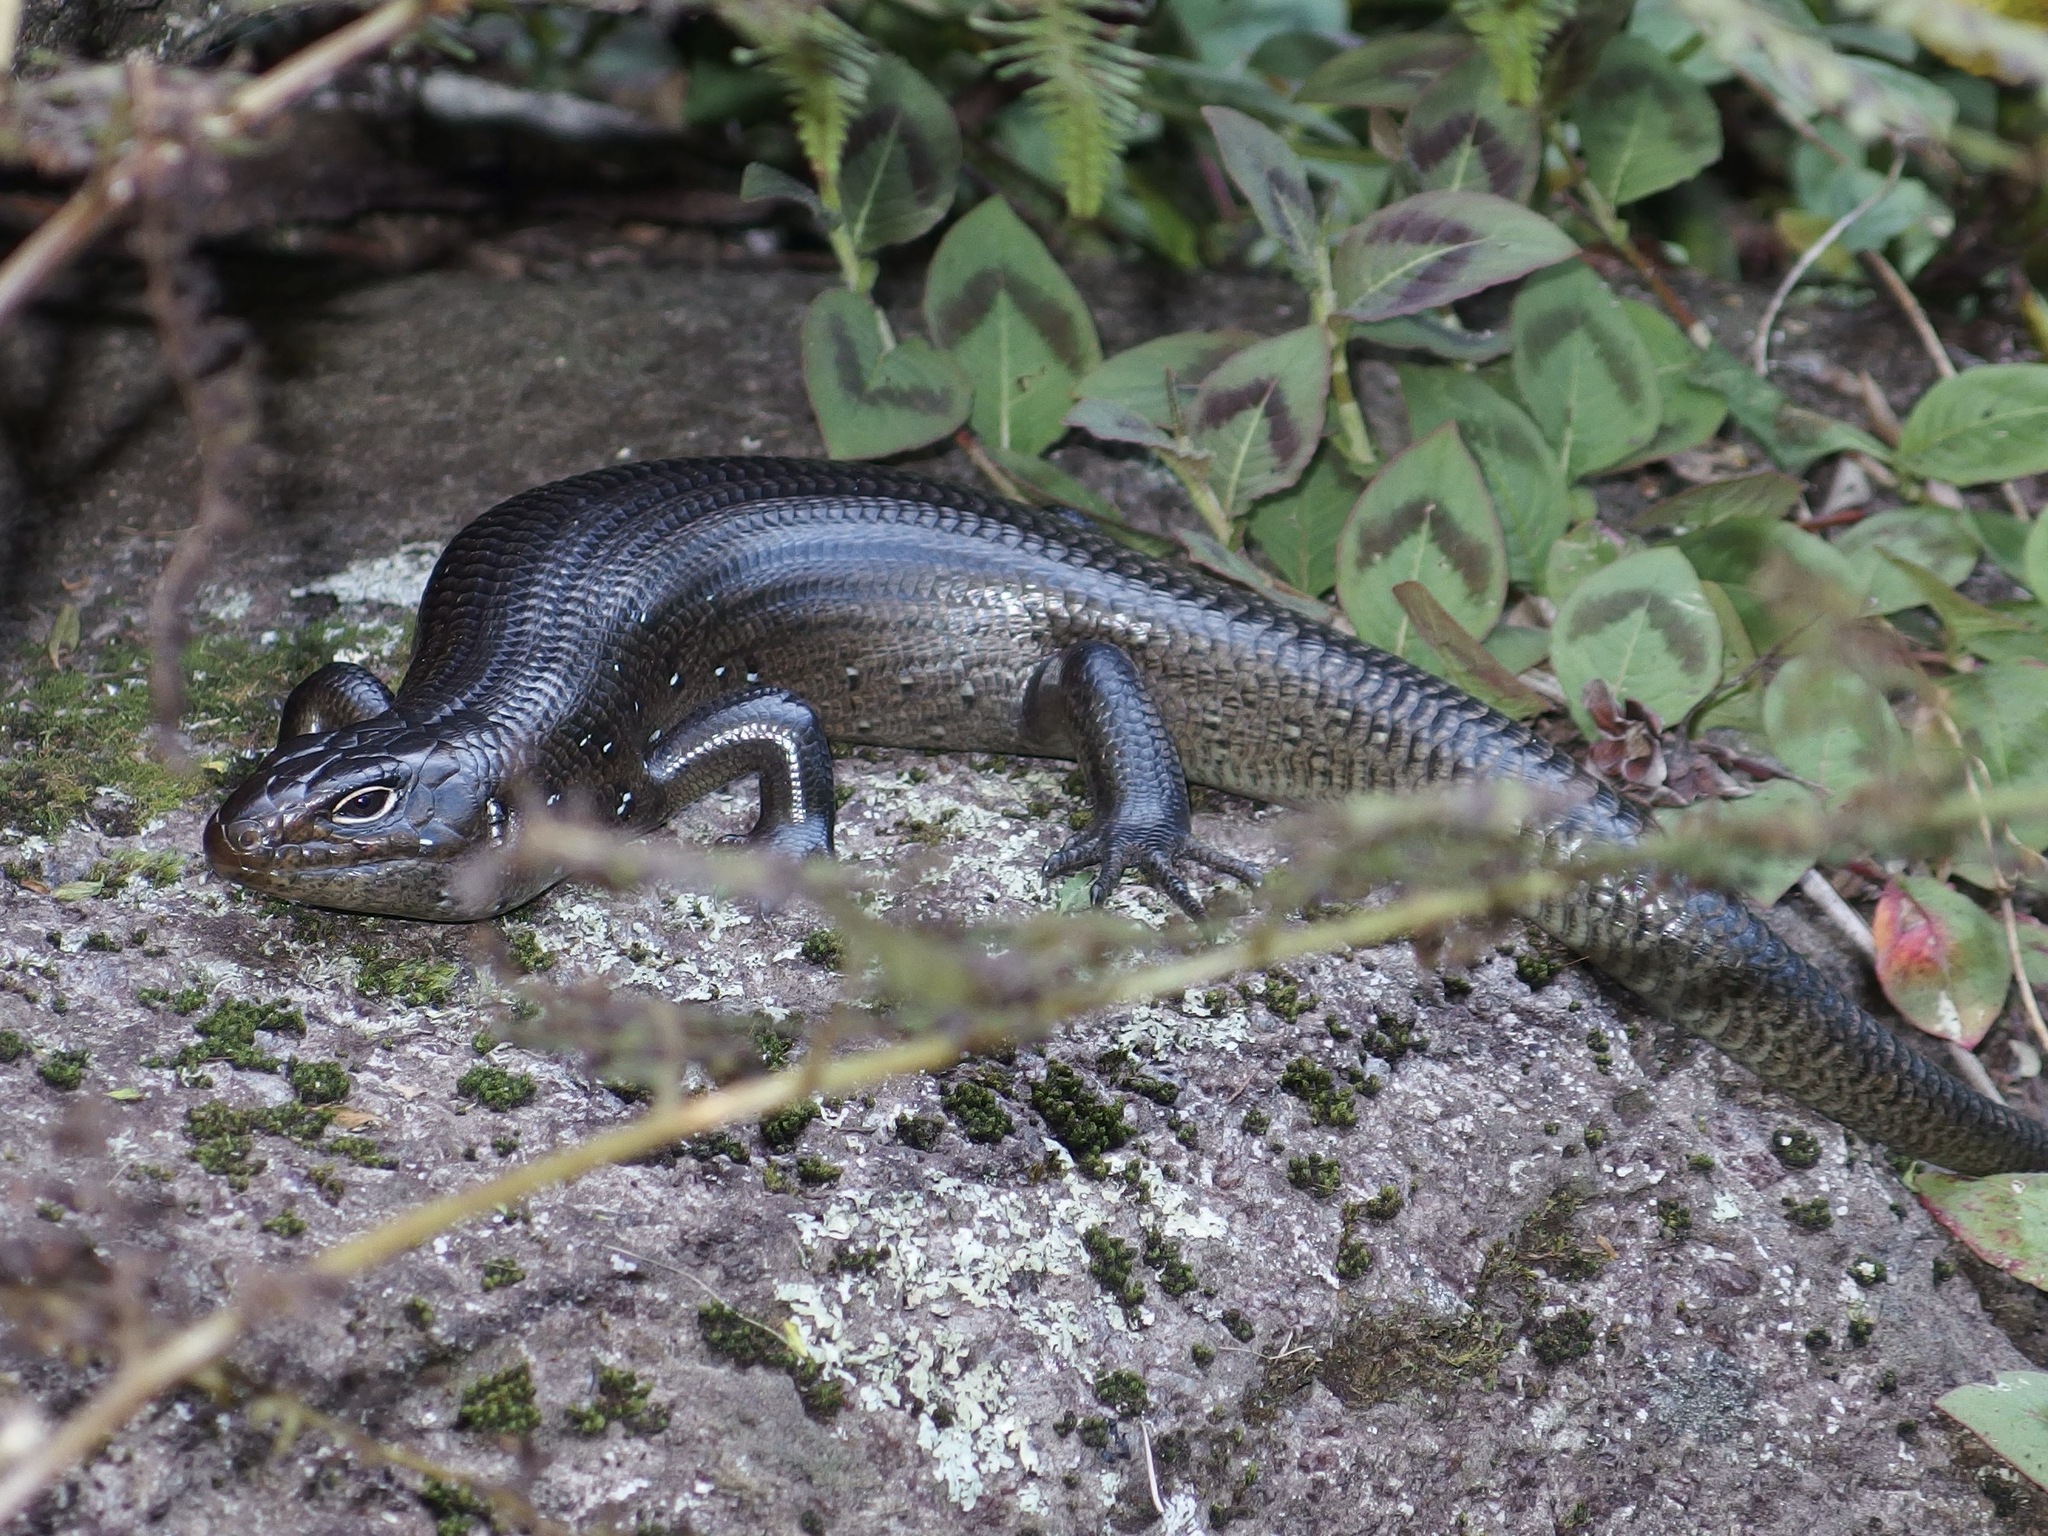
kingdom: Animalia
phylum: Chordata
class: Squamata
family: Scincidae
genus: Bellatorias
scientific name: Bellatorias major
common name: Land mullet
